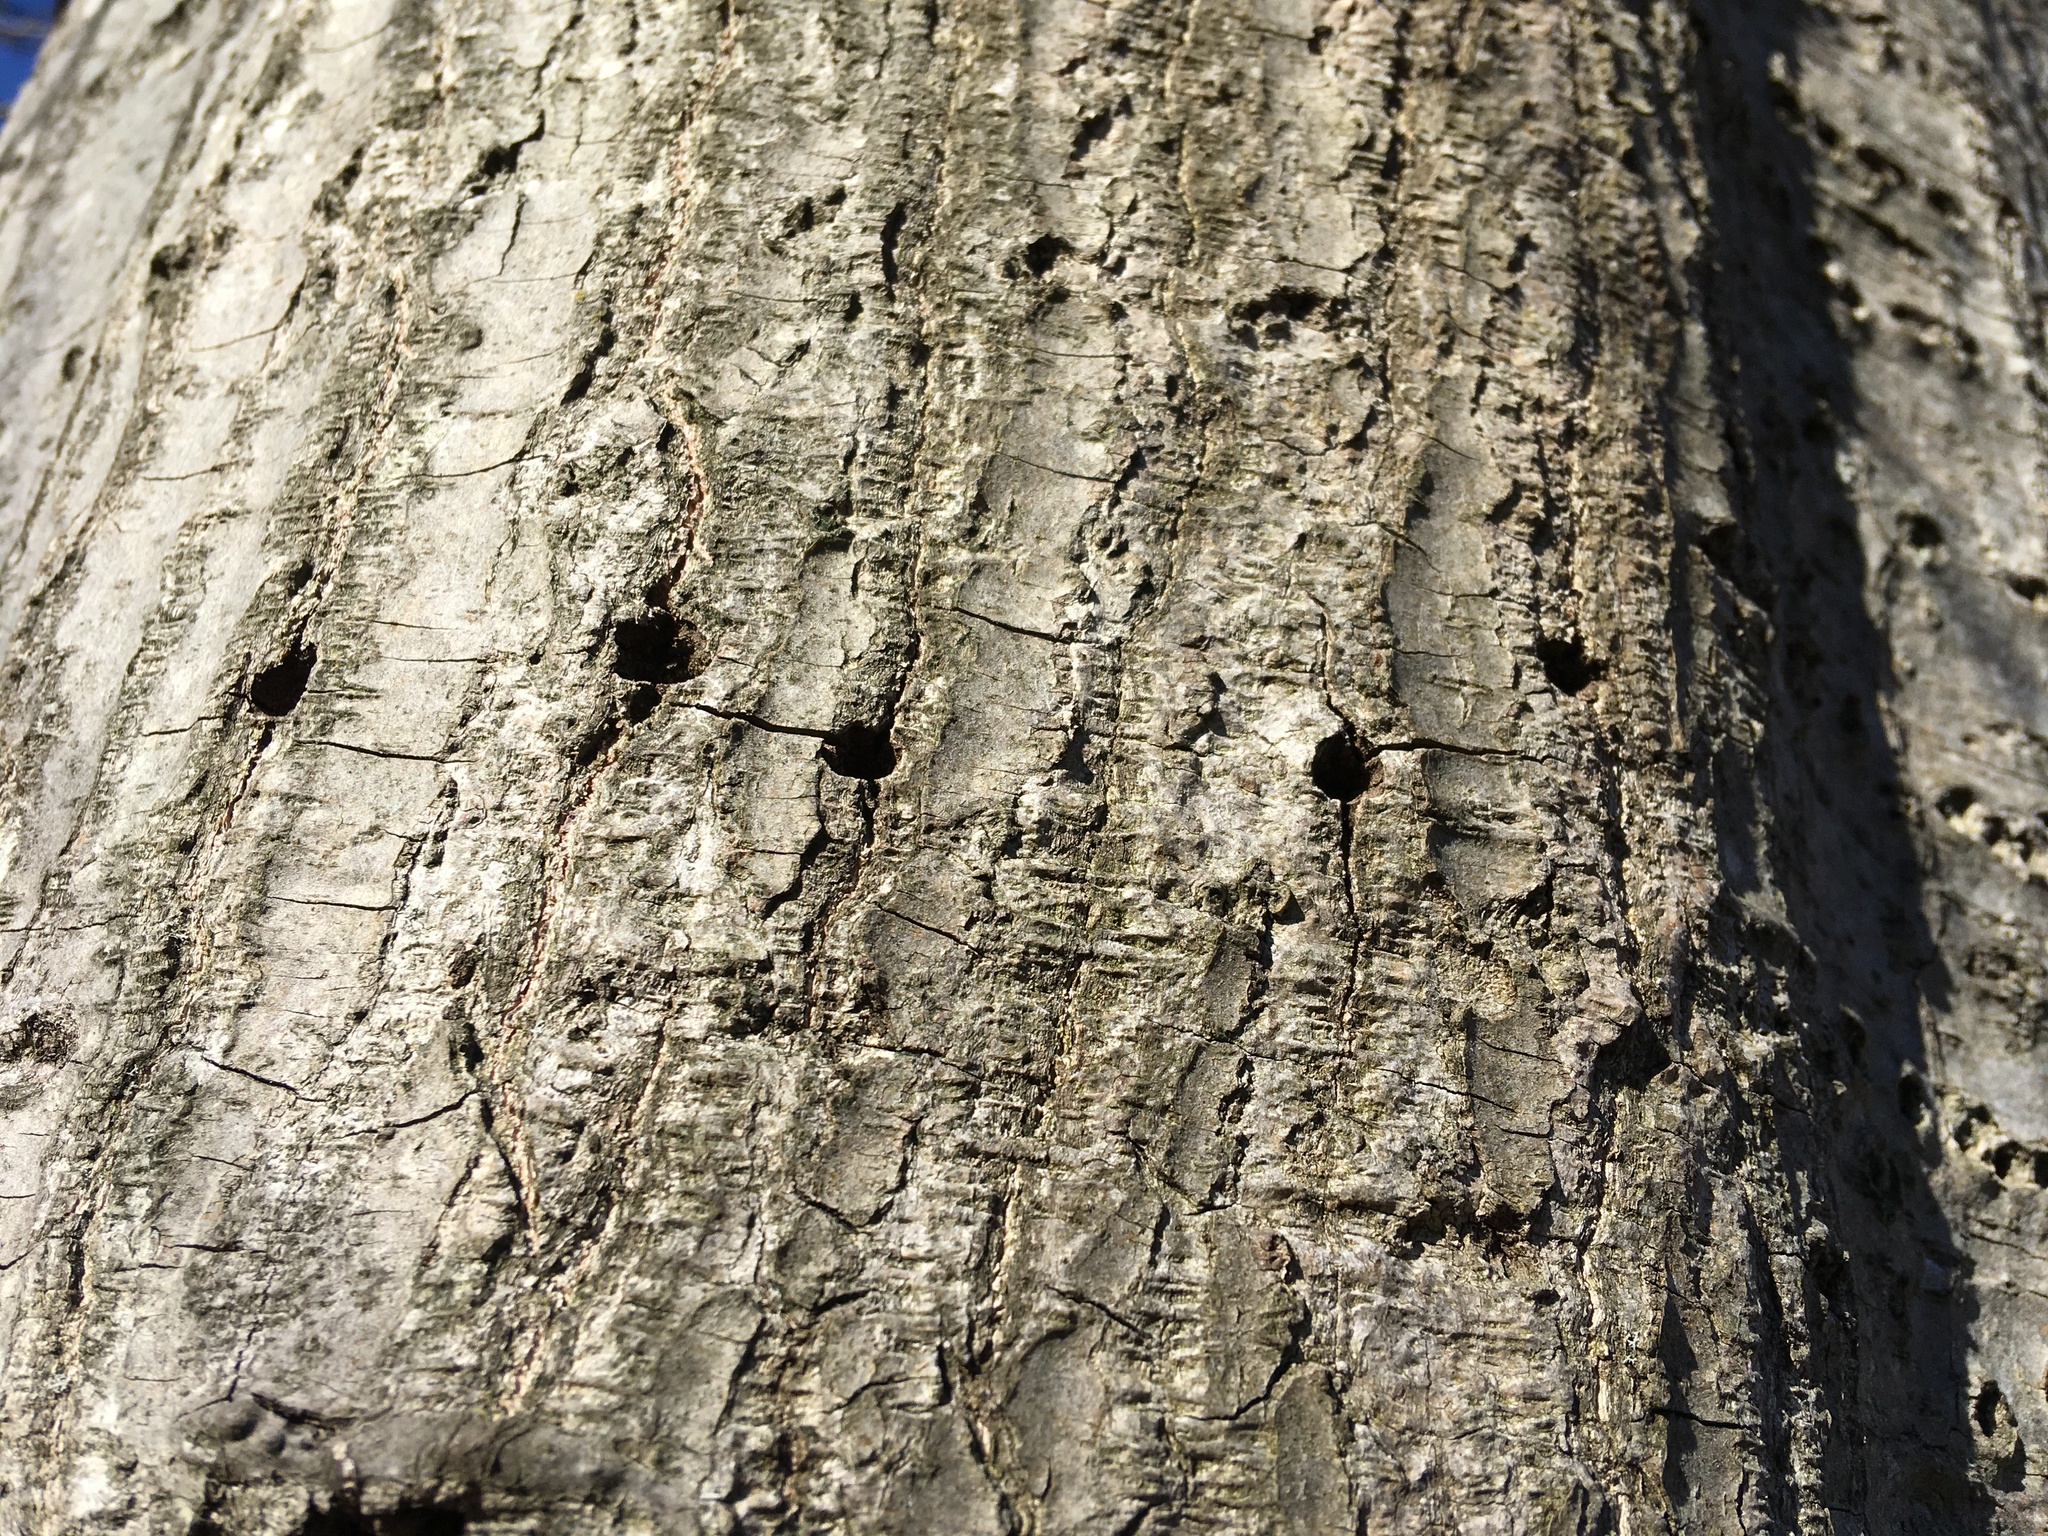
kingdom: Animalia
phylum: Chordata
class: Aves
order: Piciformes
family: Picidae
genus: Sphyrapicus
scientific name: Sphyrapicus varius
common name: Yellow-bellied sapsucker
